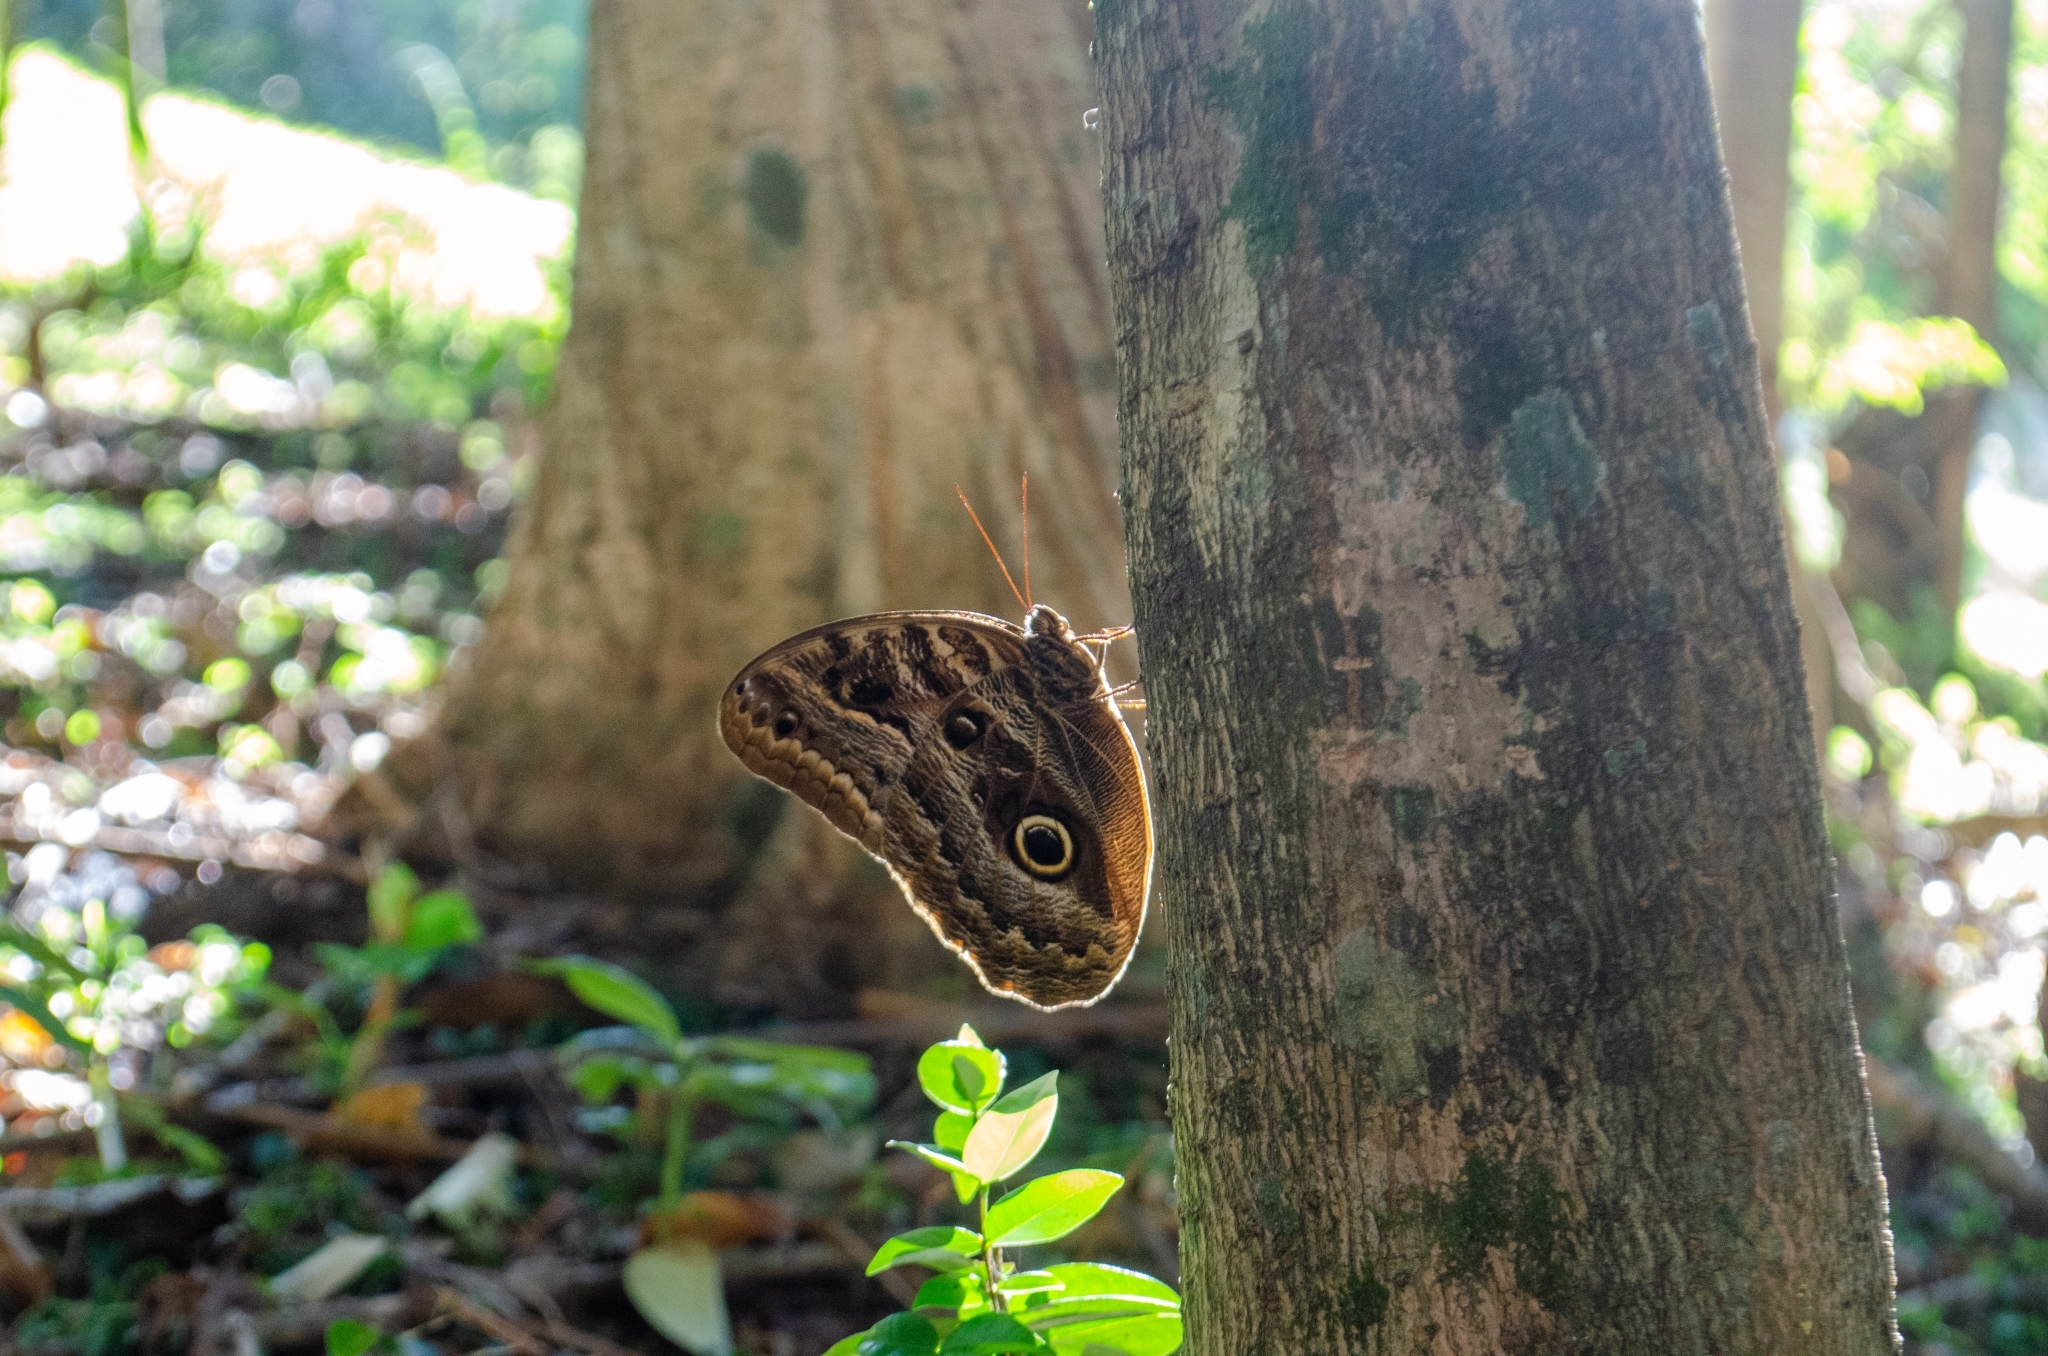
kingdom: Animalia
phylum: Arthropoda
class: Insecta
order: Lepidoptera
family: Nymphalidae
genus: Caligo
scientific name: Caligo illioneus
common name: Dusky owl-butterfly
